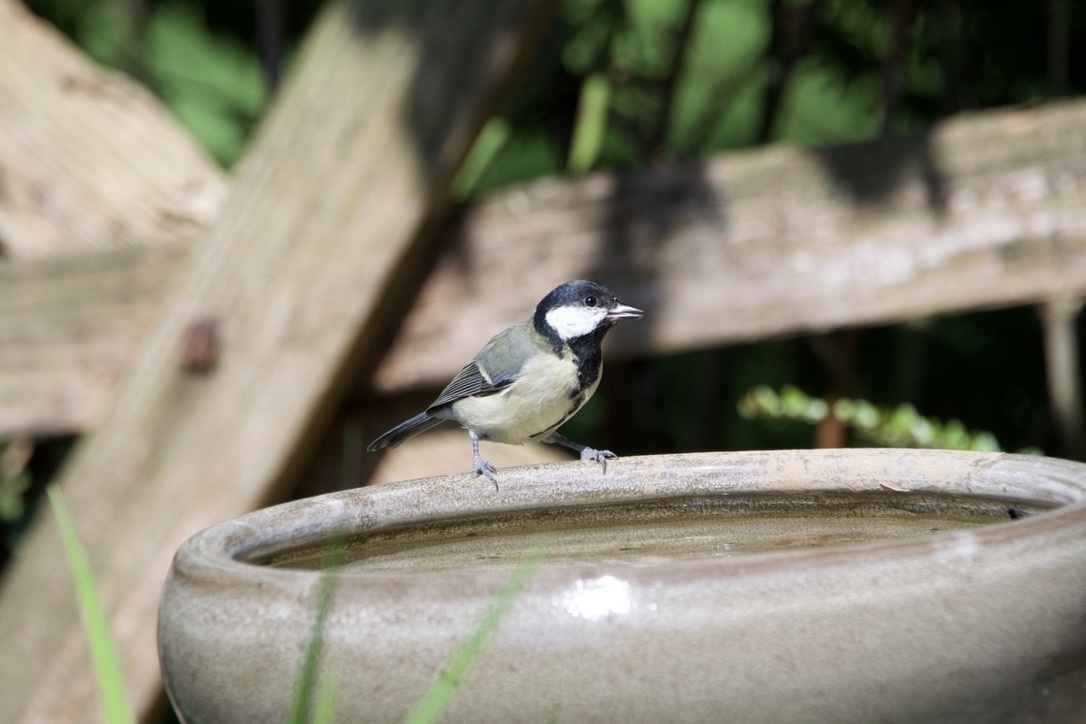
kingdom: Animalia
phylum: Chordata
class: Aves
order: Passeriformes
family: Paridae
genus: Parus
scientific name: Parus major
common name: Great tit
